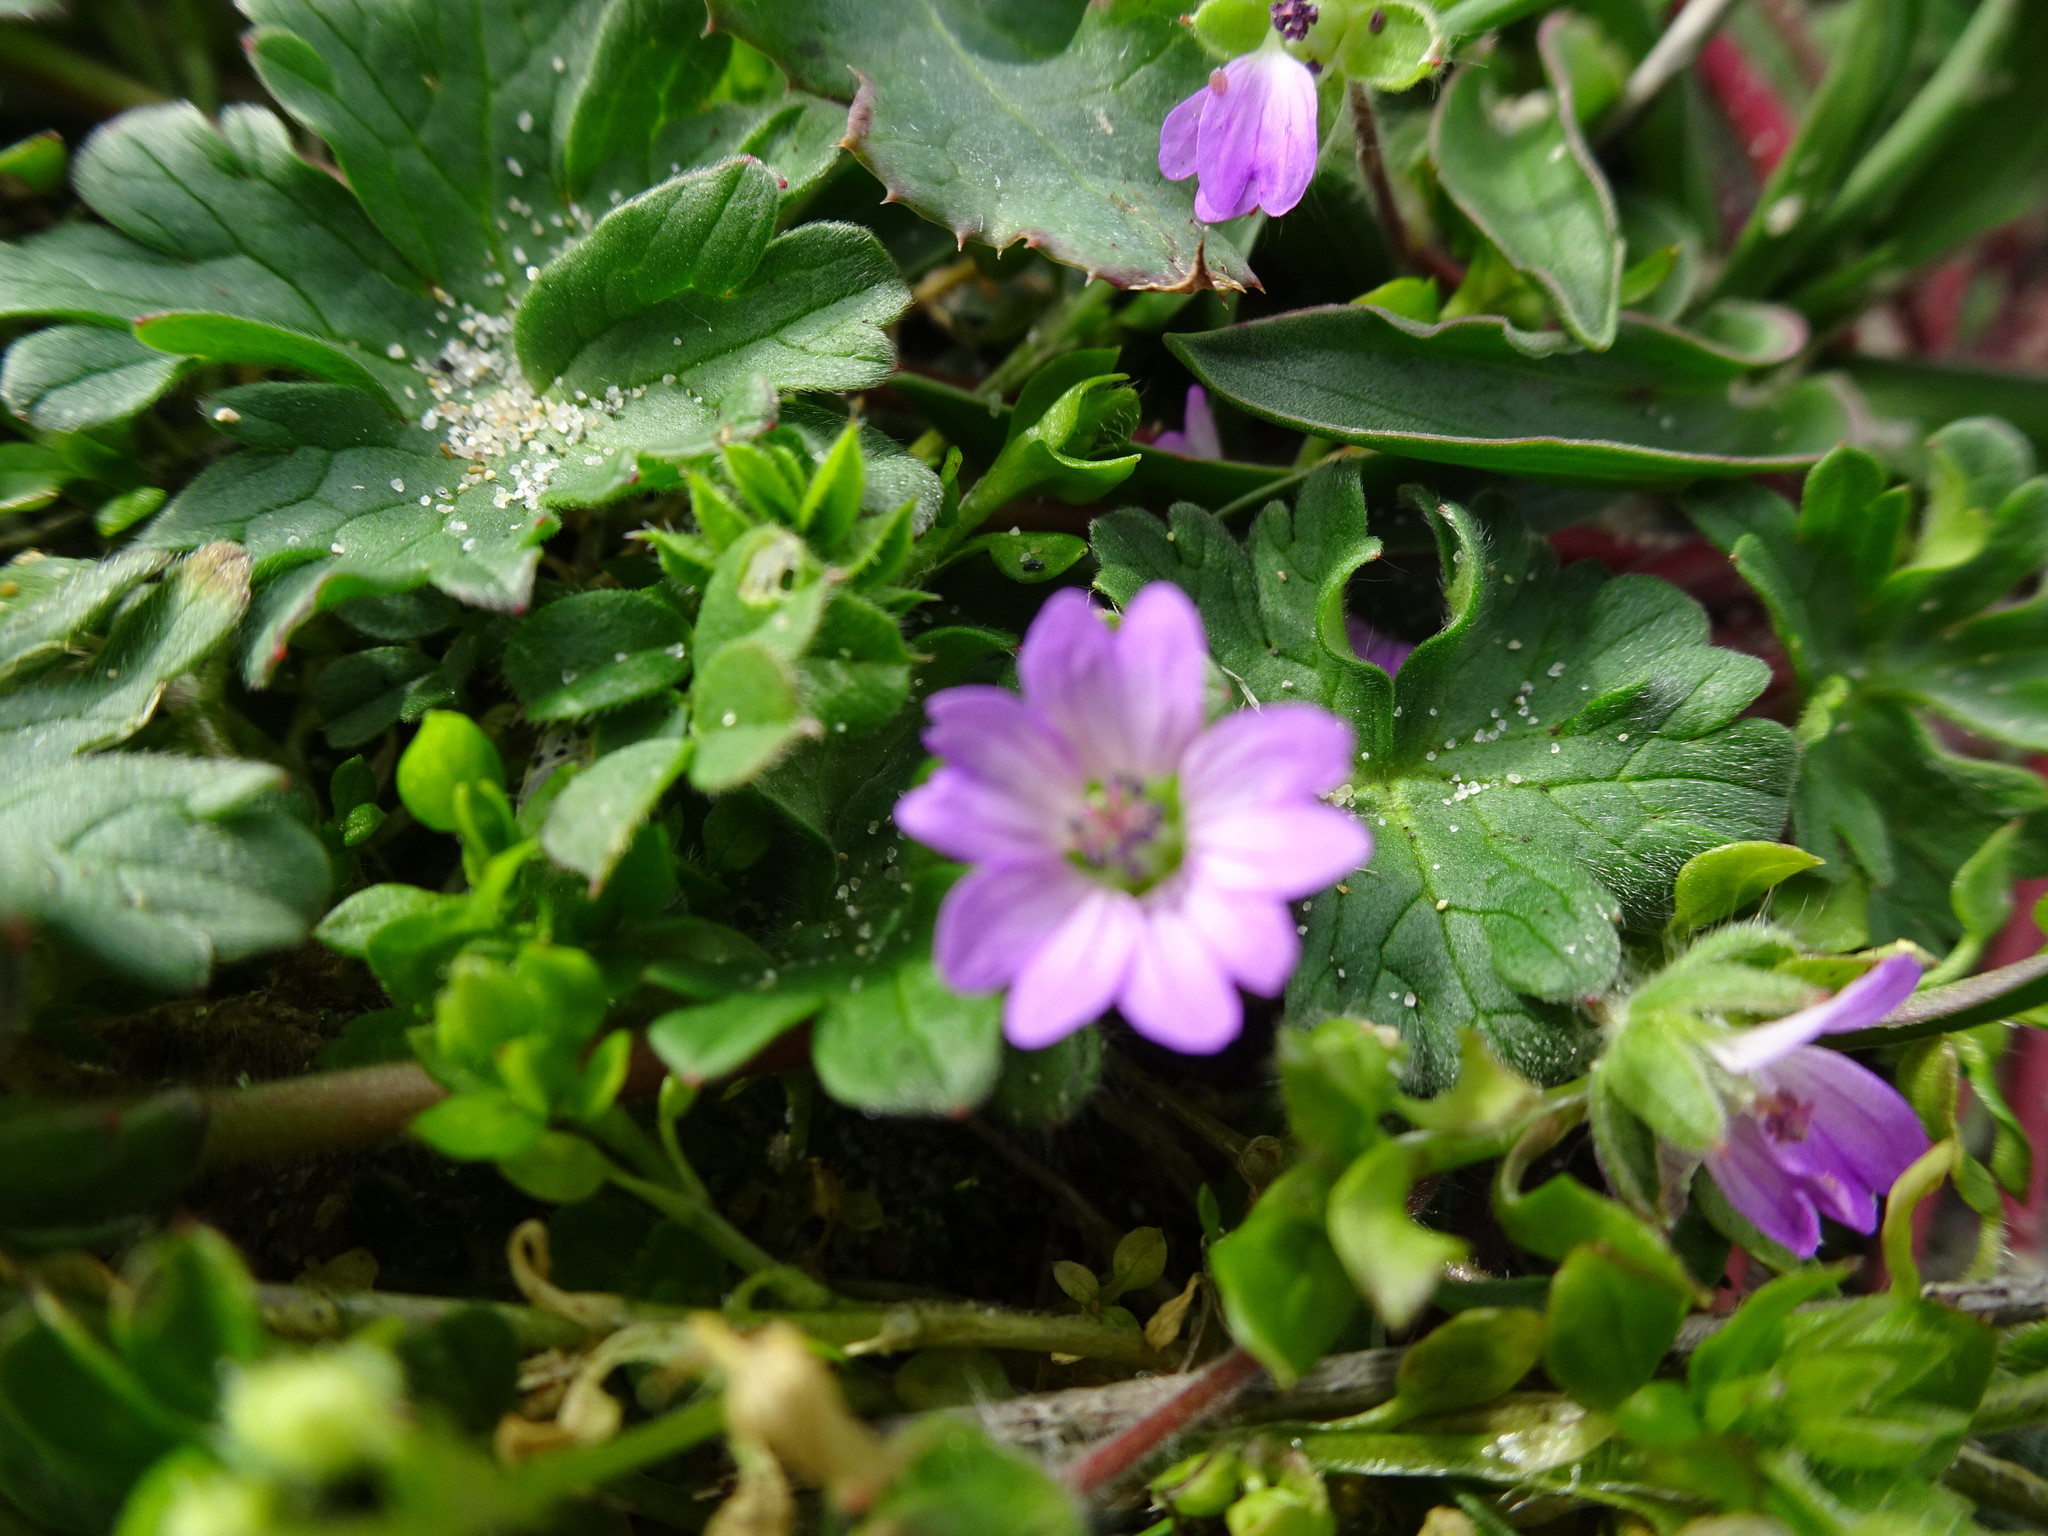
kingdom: Plantae
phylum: Tracheophyta
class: Magnoliopsida
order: Geraniales
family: Geraniaceae
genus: Geranium
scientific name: Geranium molle
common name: Dove's-foot crane's-bill
